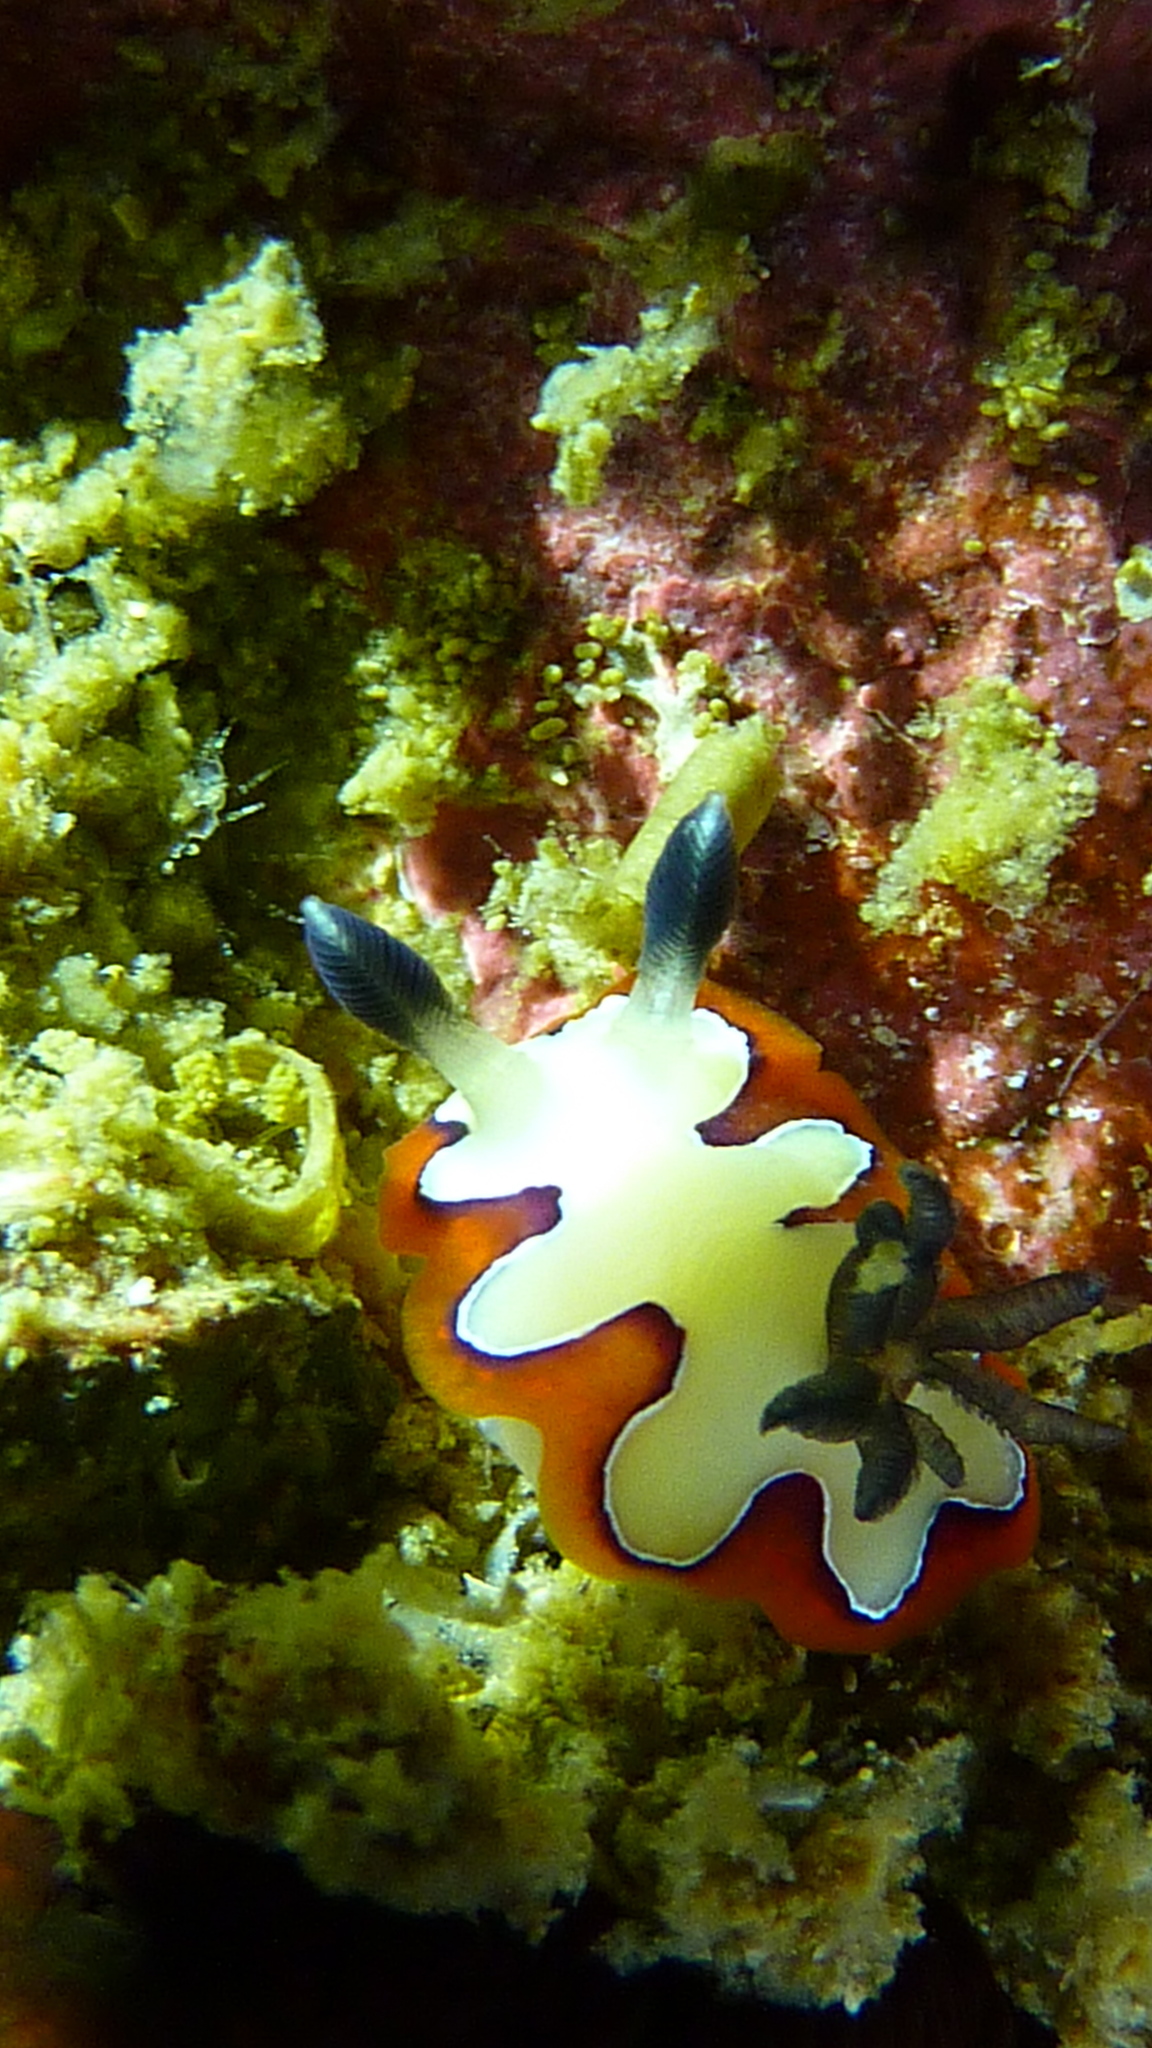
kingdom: Animalia
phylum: Mollusca
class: Gastropoda
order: Nudibranchia
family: Chromodorididae
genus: Goniobranchus
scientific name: Goniobranchus fidelis
